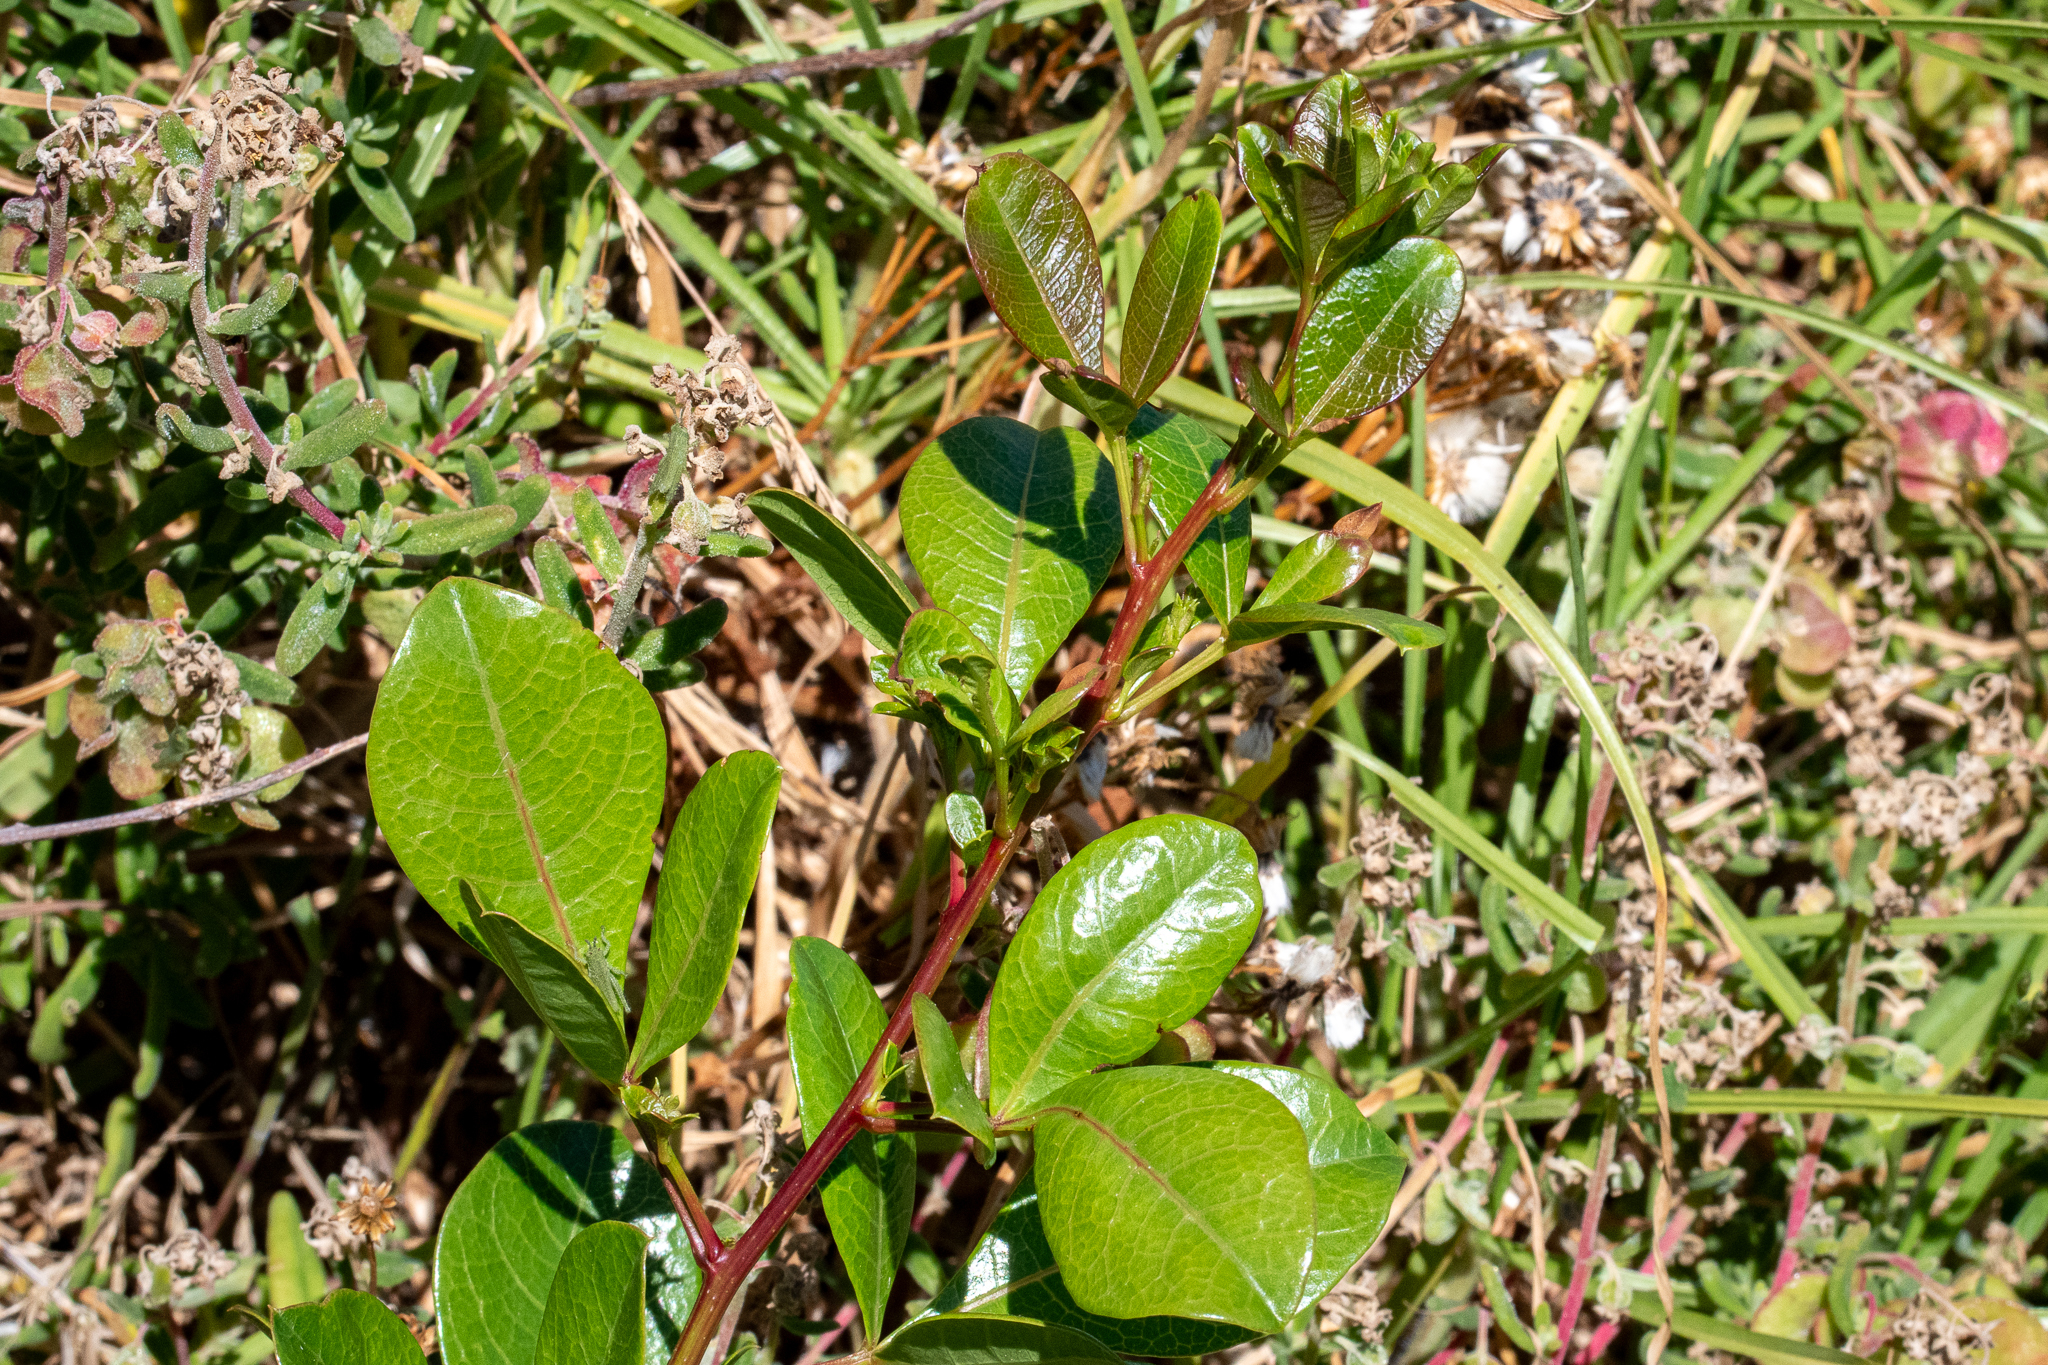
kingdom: Plantae
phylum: Tracheophyta
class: Magnoliopsida
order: Sapindales
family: Anacardiaceae
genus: Searsia
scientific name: Searsia laevigata
